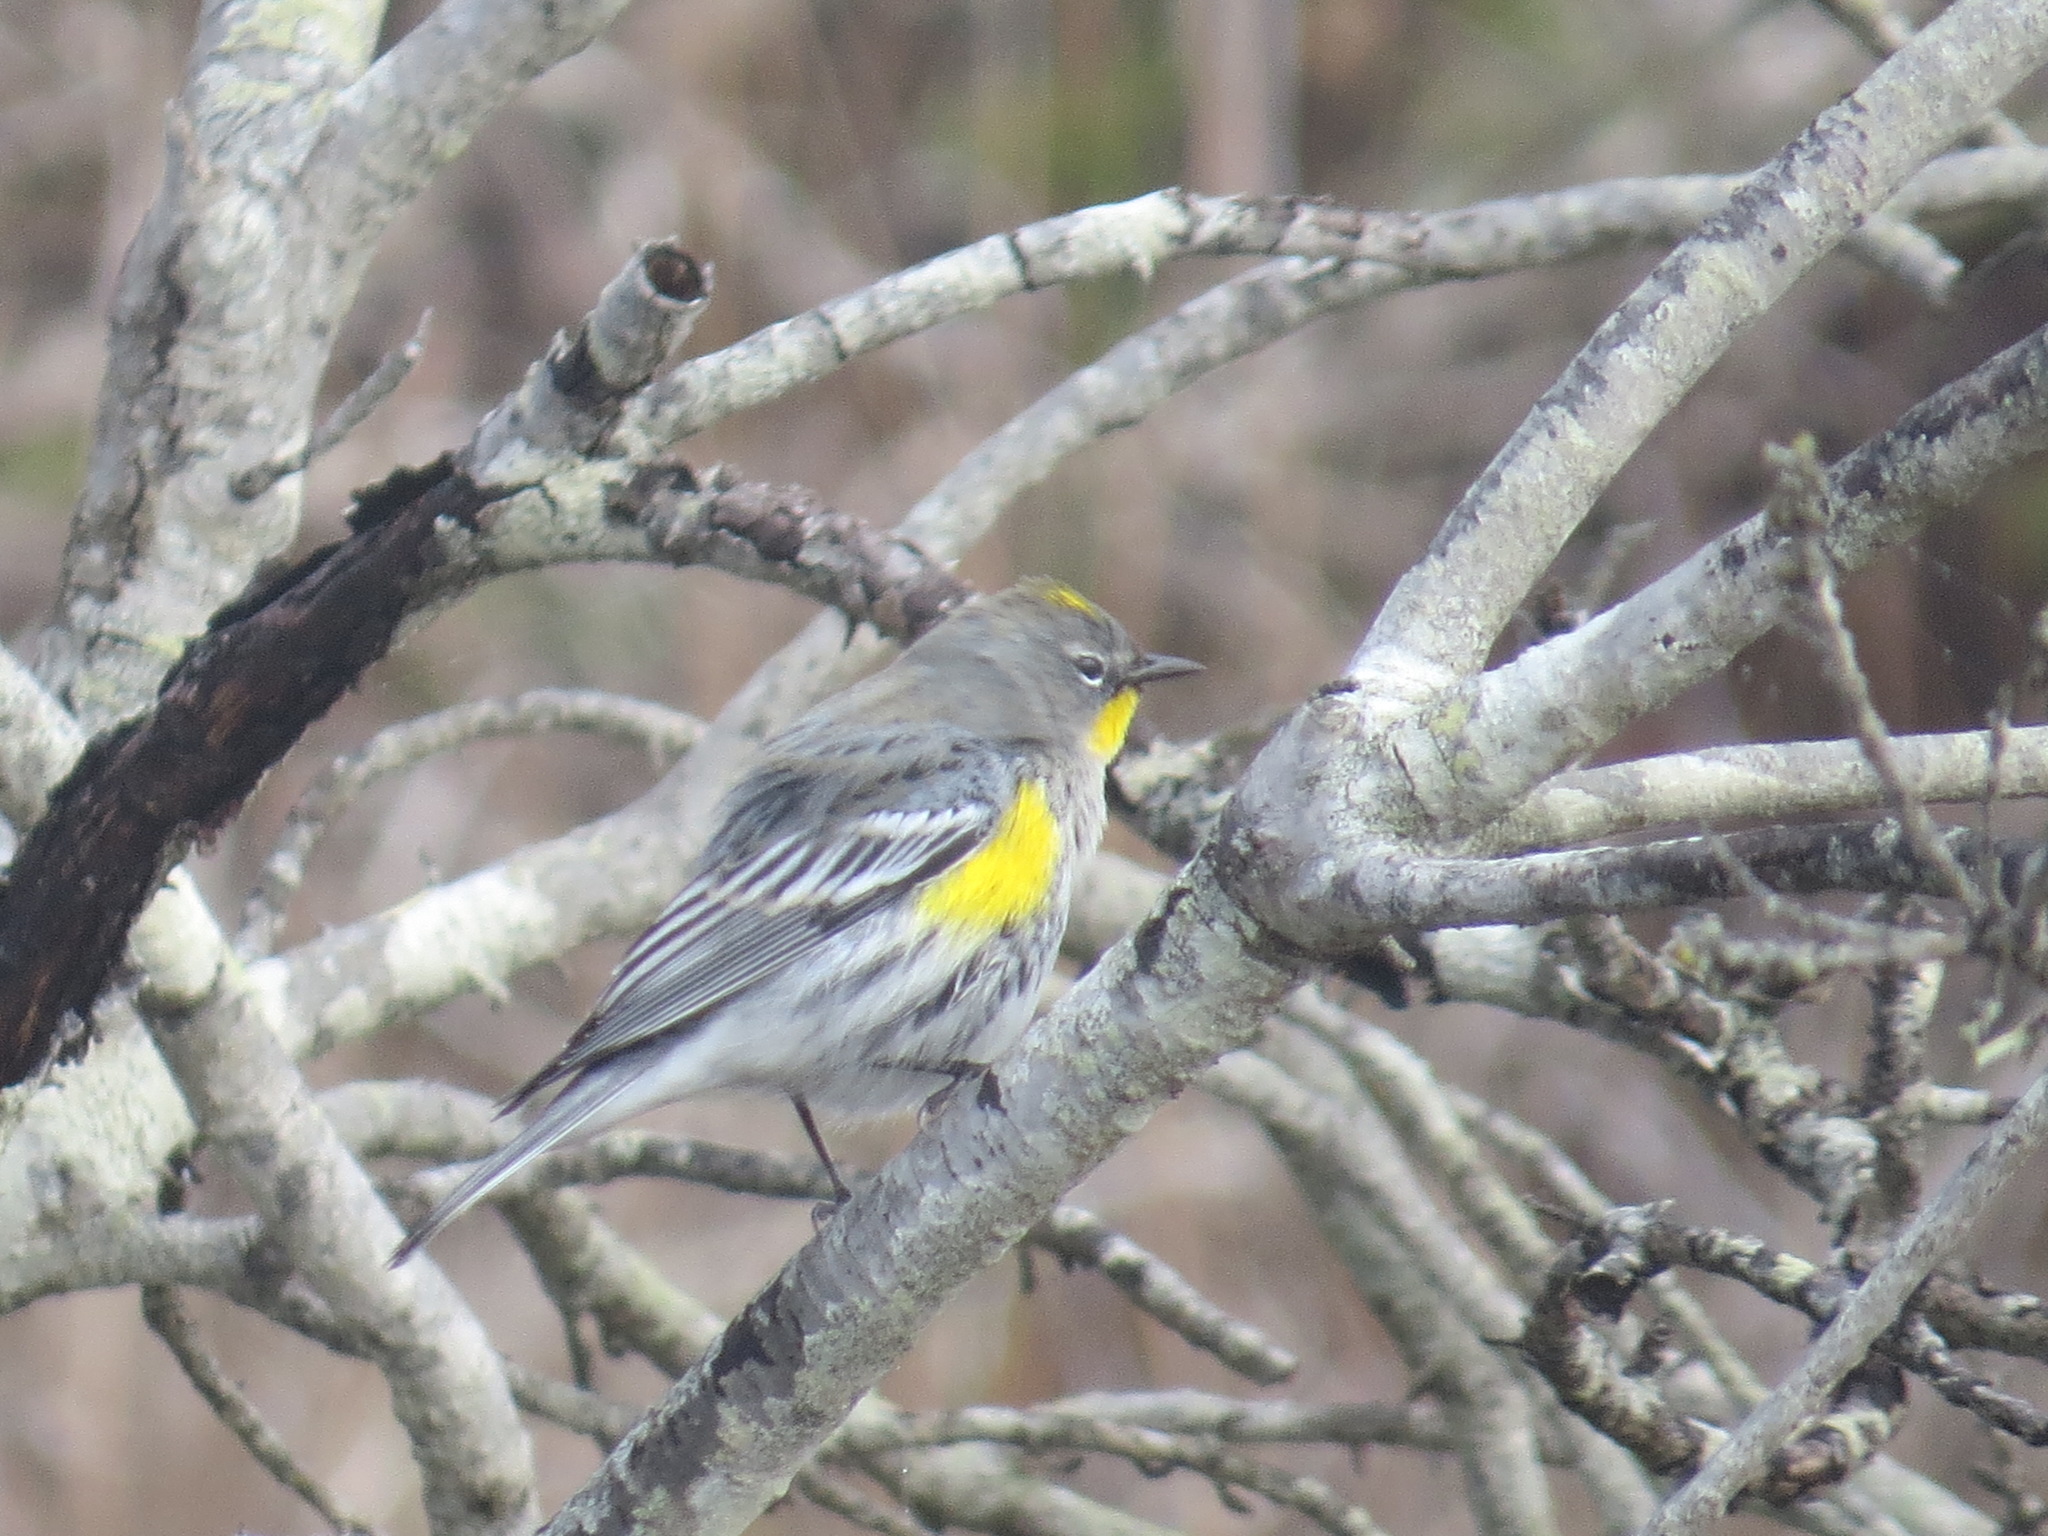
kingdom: Animalia
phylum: Chordata
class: Aves
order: Passeriformes
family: Parulidae
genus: Setophaga
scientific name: Setophaga auduboni
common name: Audubon's warbler
